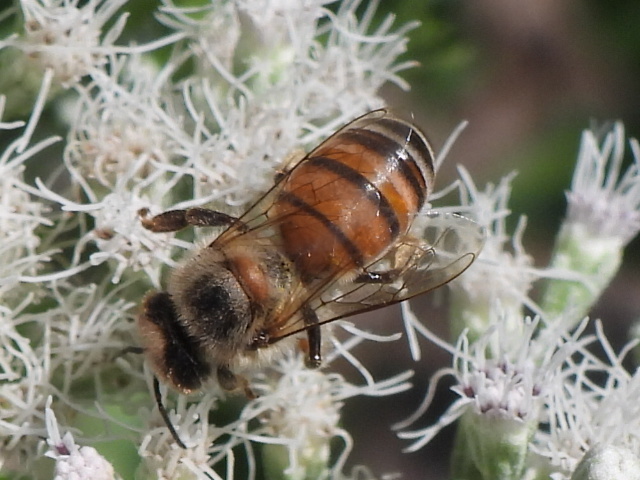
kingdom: Animalia
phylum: Arthropoda
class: Insecta
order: Hymenoptera
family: Apidae
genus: Apis
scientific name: Apis mellifera
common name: Honey bee
